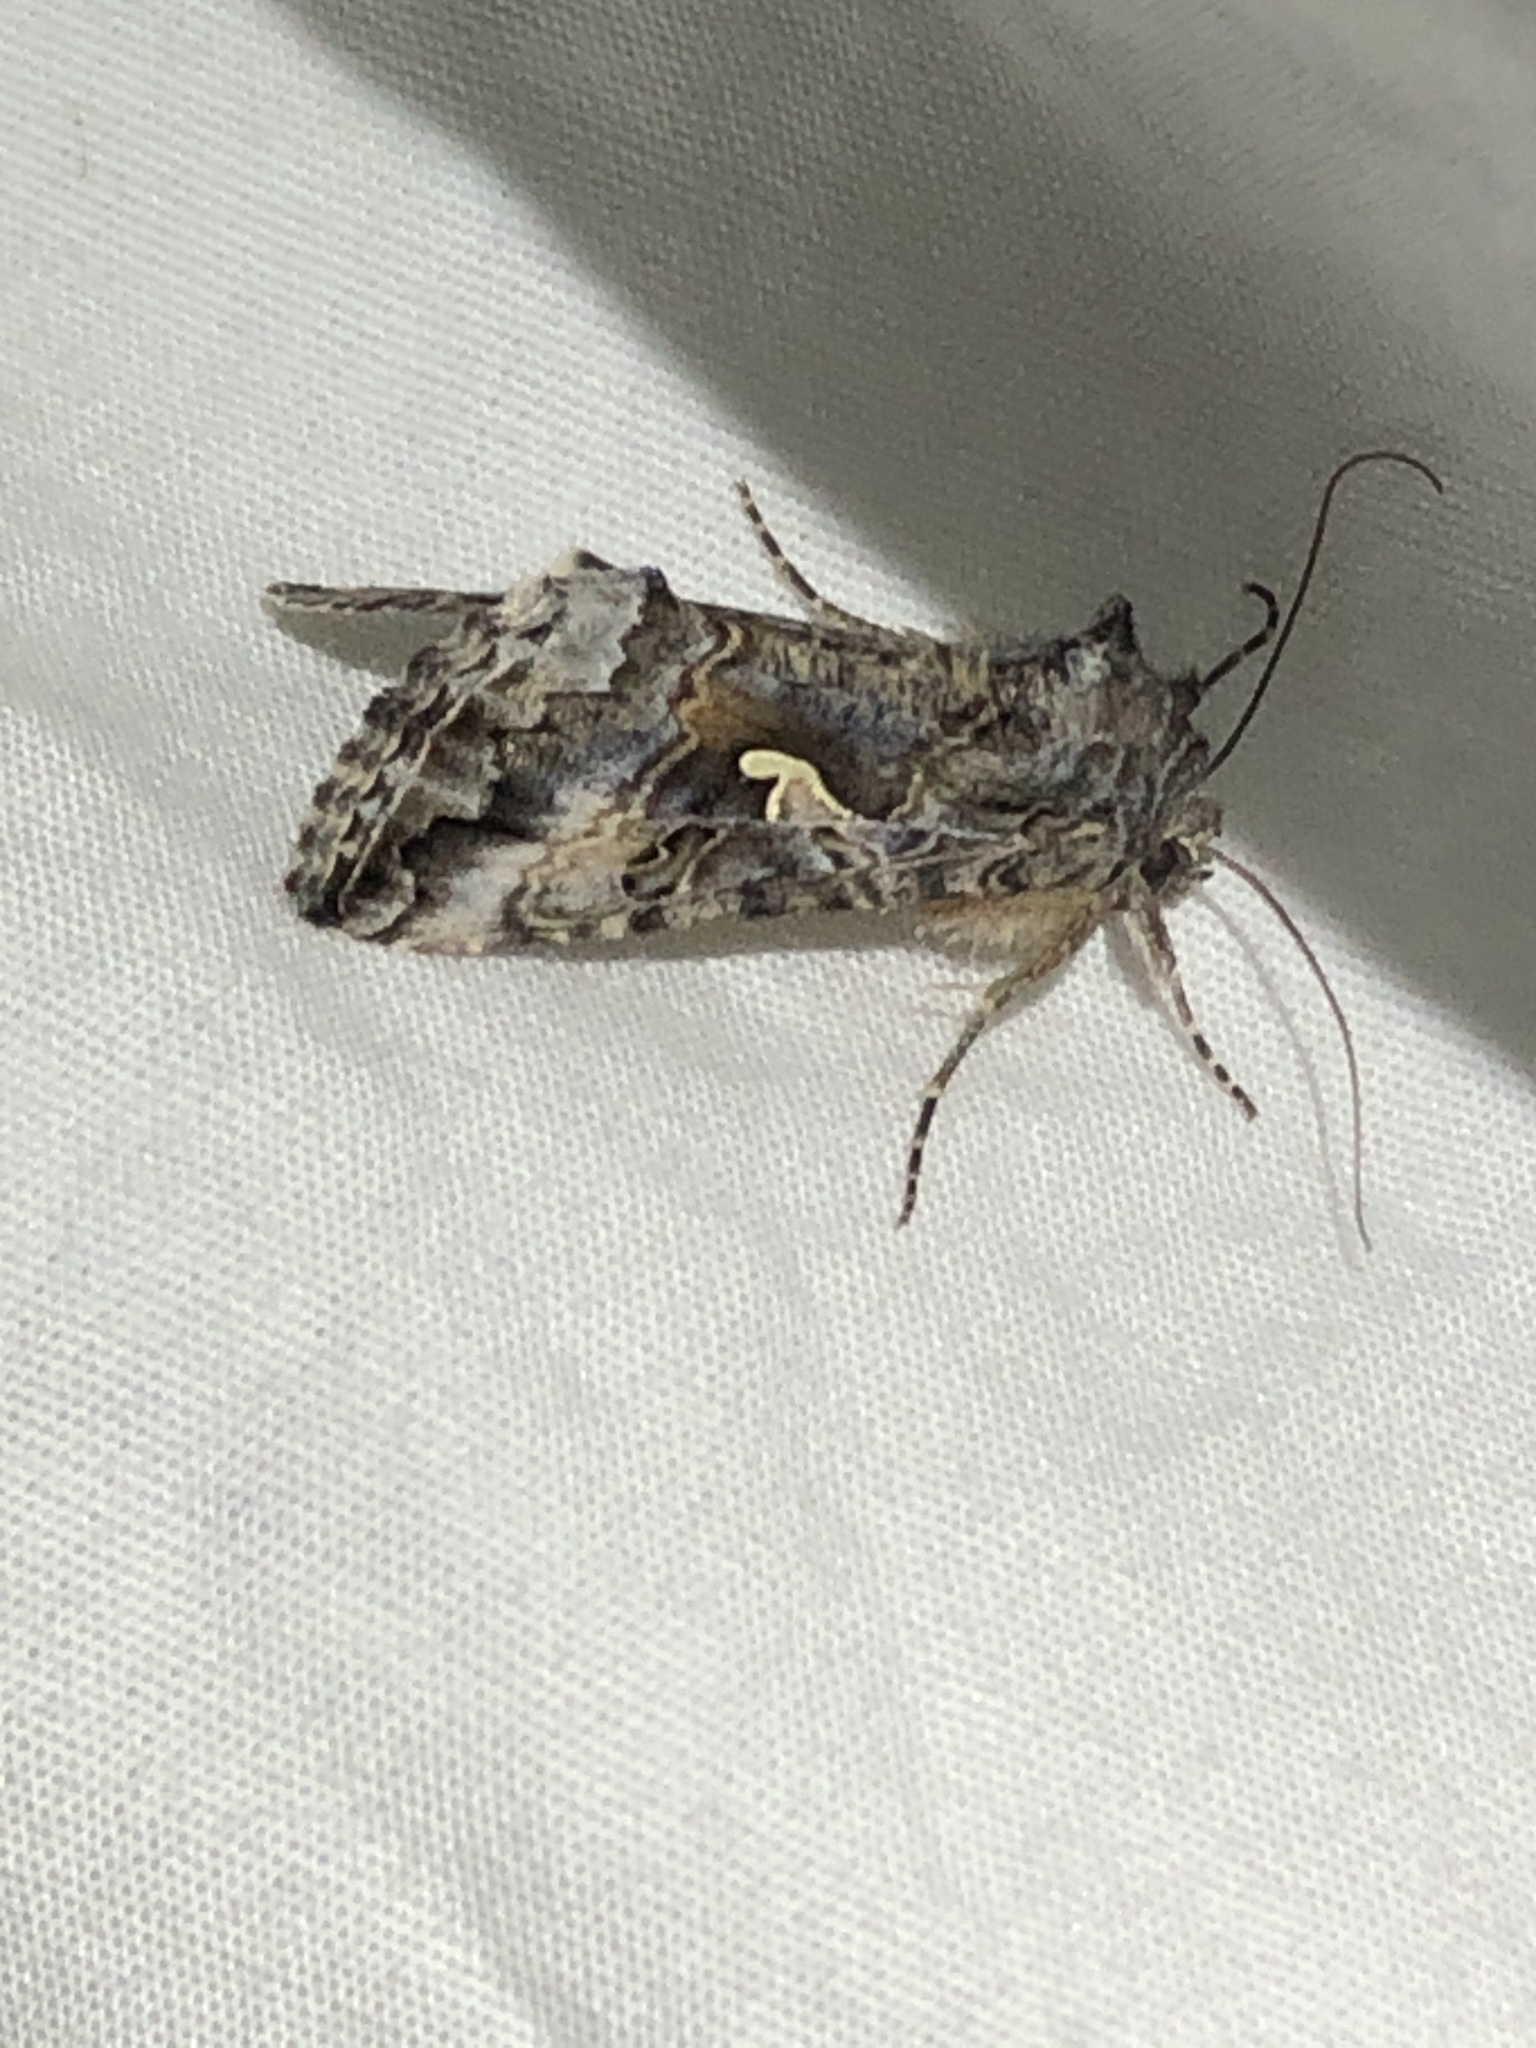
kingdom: Animalia
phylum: Arthropoda
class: Insecta
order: Lepidoptera
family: Noctuidae
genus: Autographa
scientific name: Autographa californica
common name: Alfalfa looper
